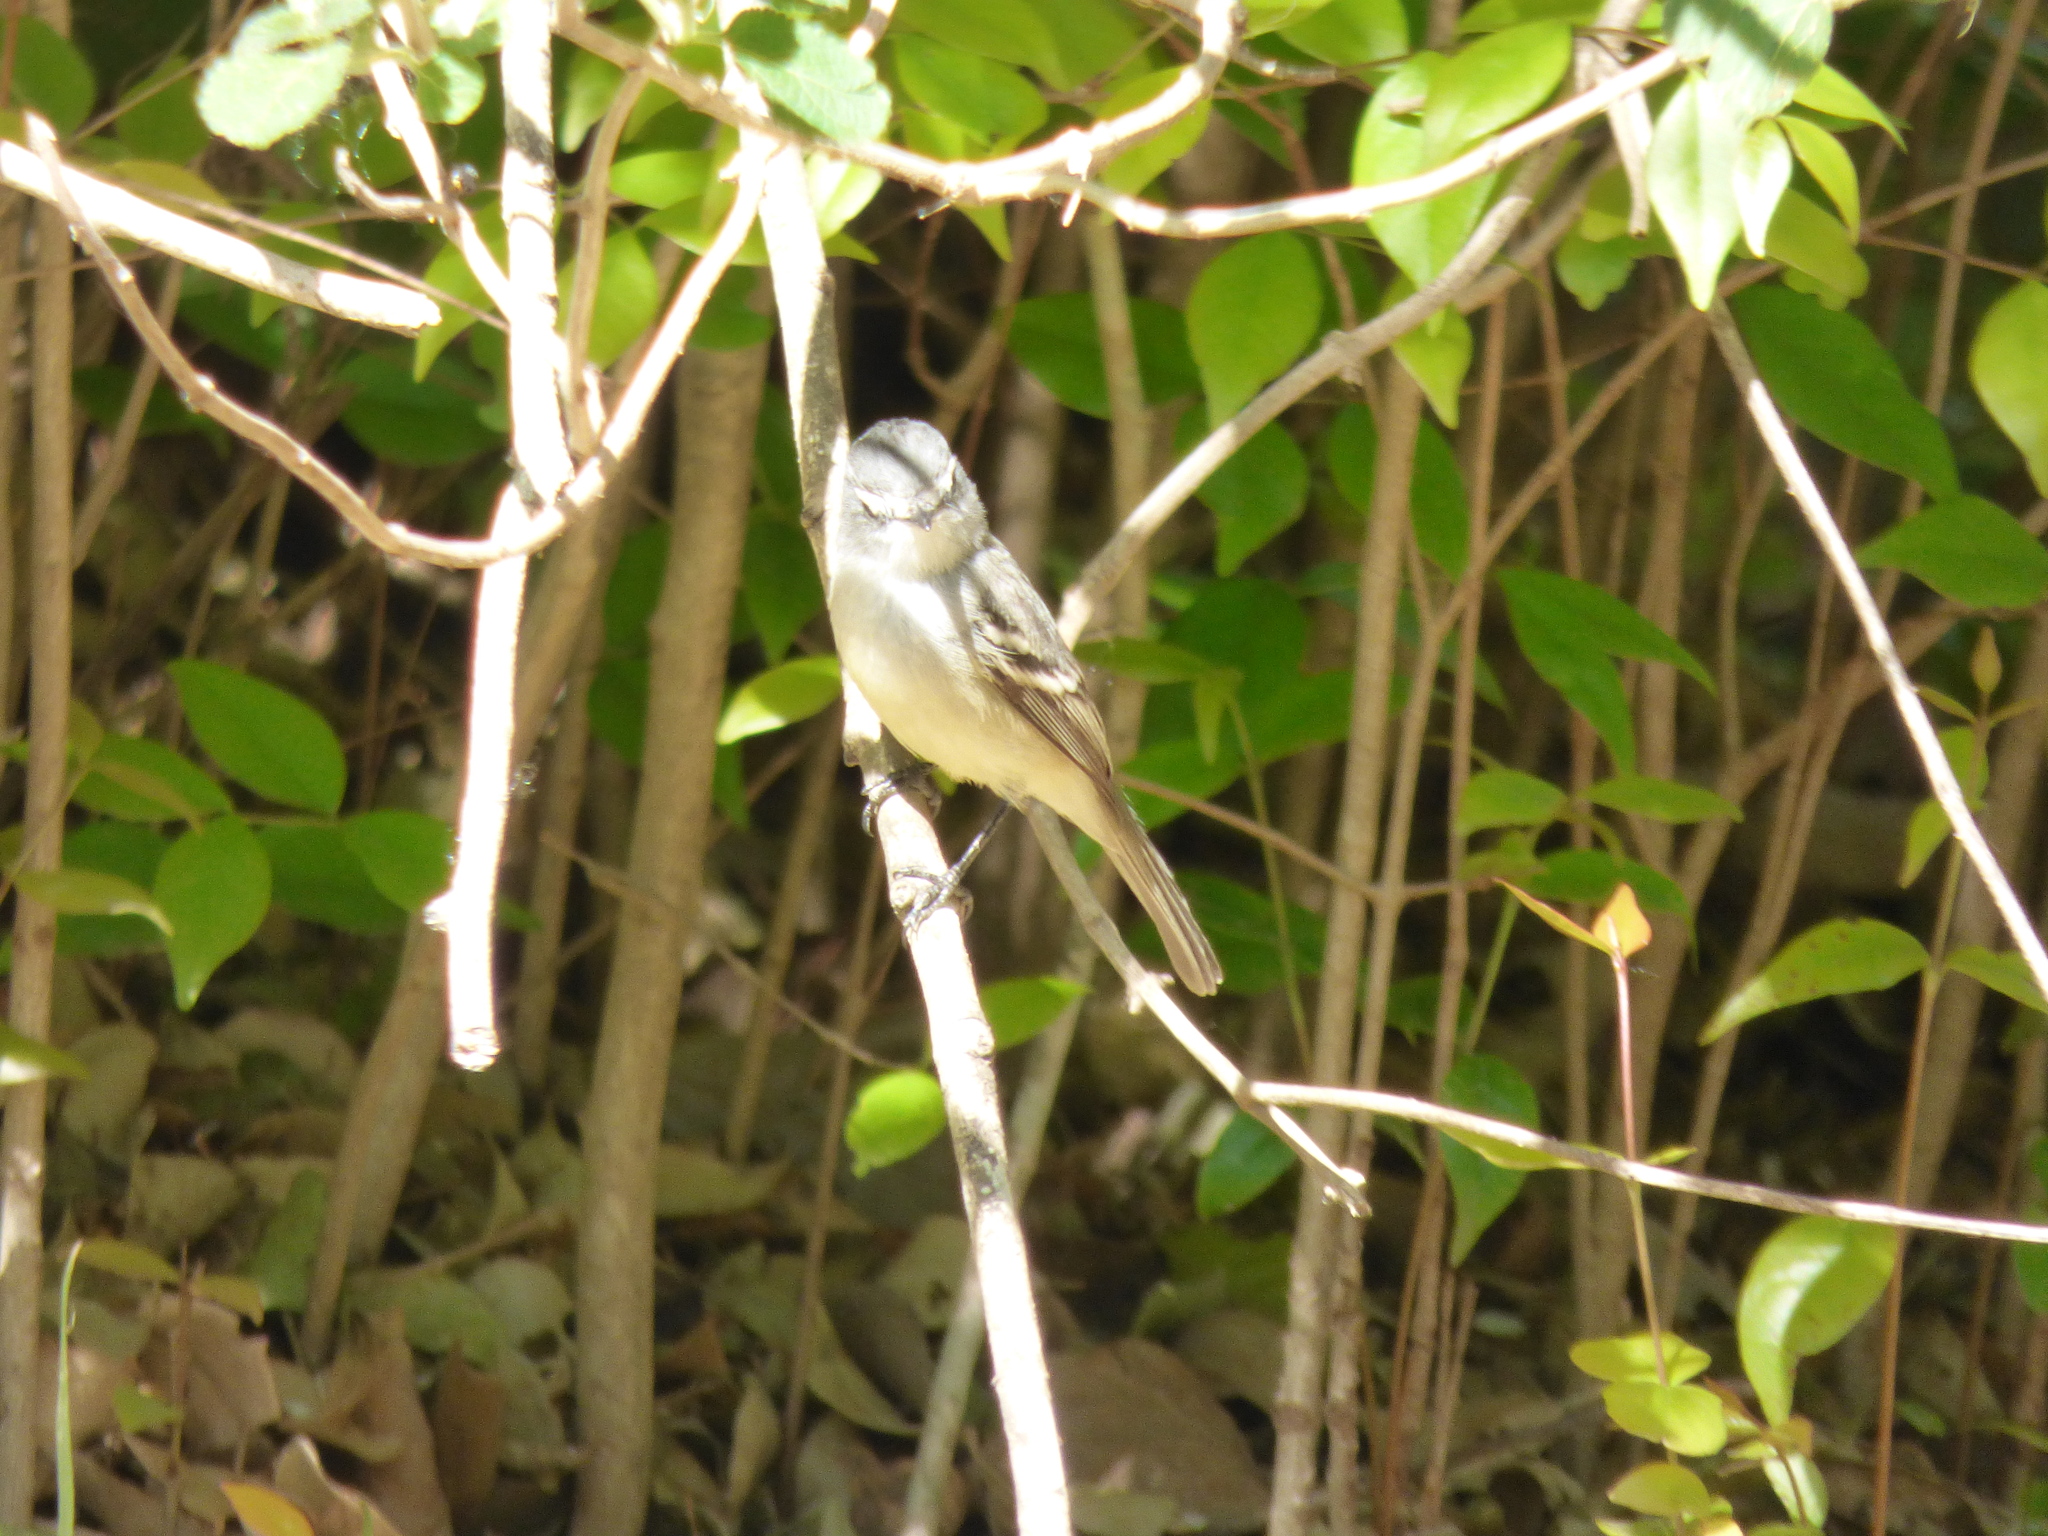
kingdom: Animalia
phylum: Chordata
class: Aves
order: Passeriformes
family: Tyrannidae
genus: Serpophaga
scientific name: Serpophaga subcristata
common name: White-crested tyrannulet
